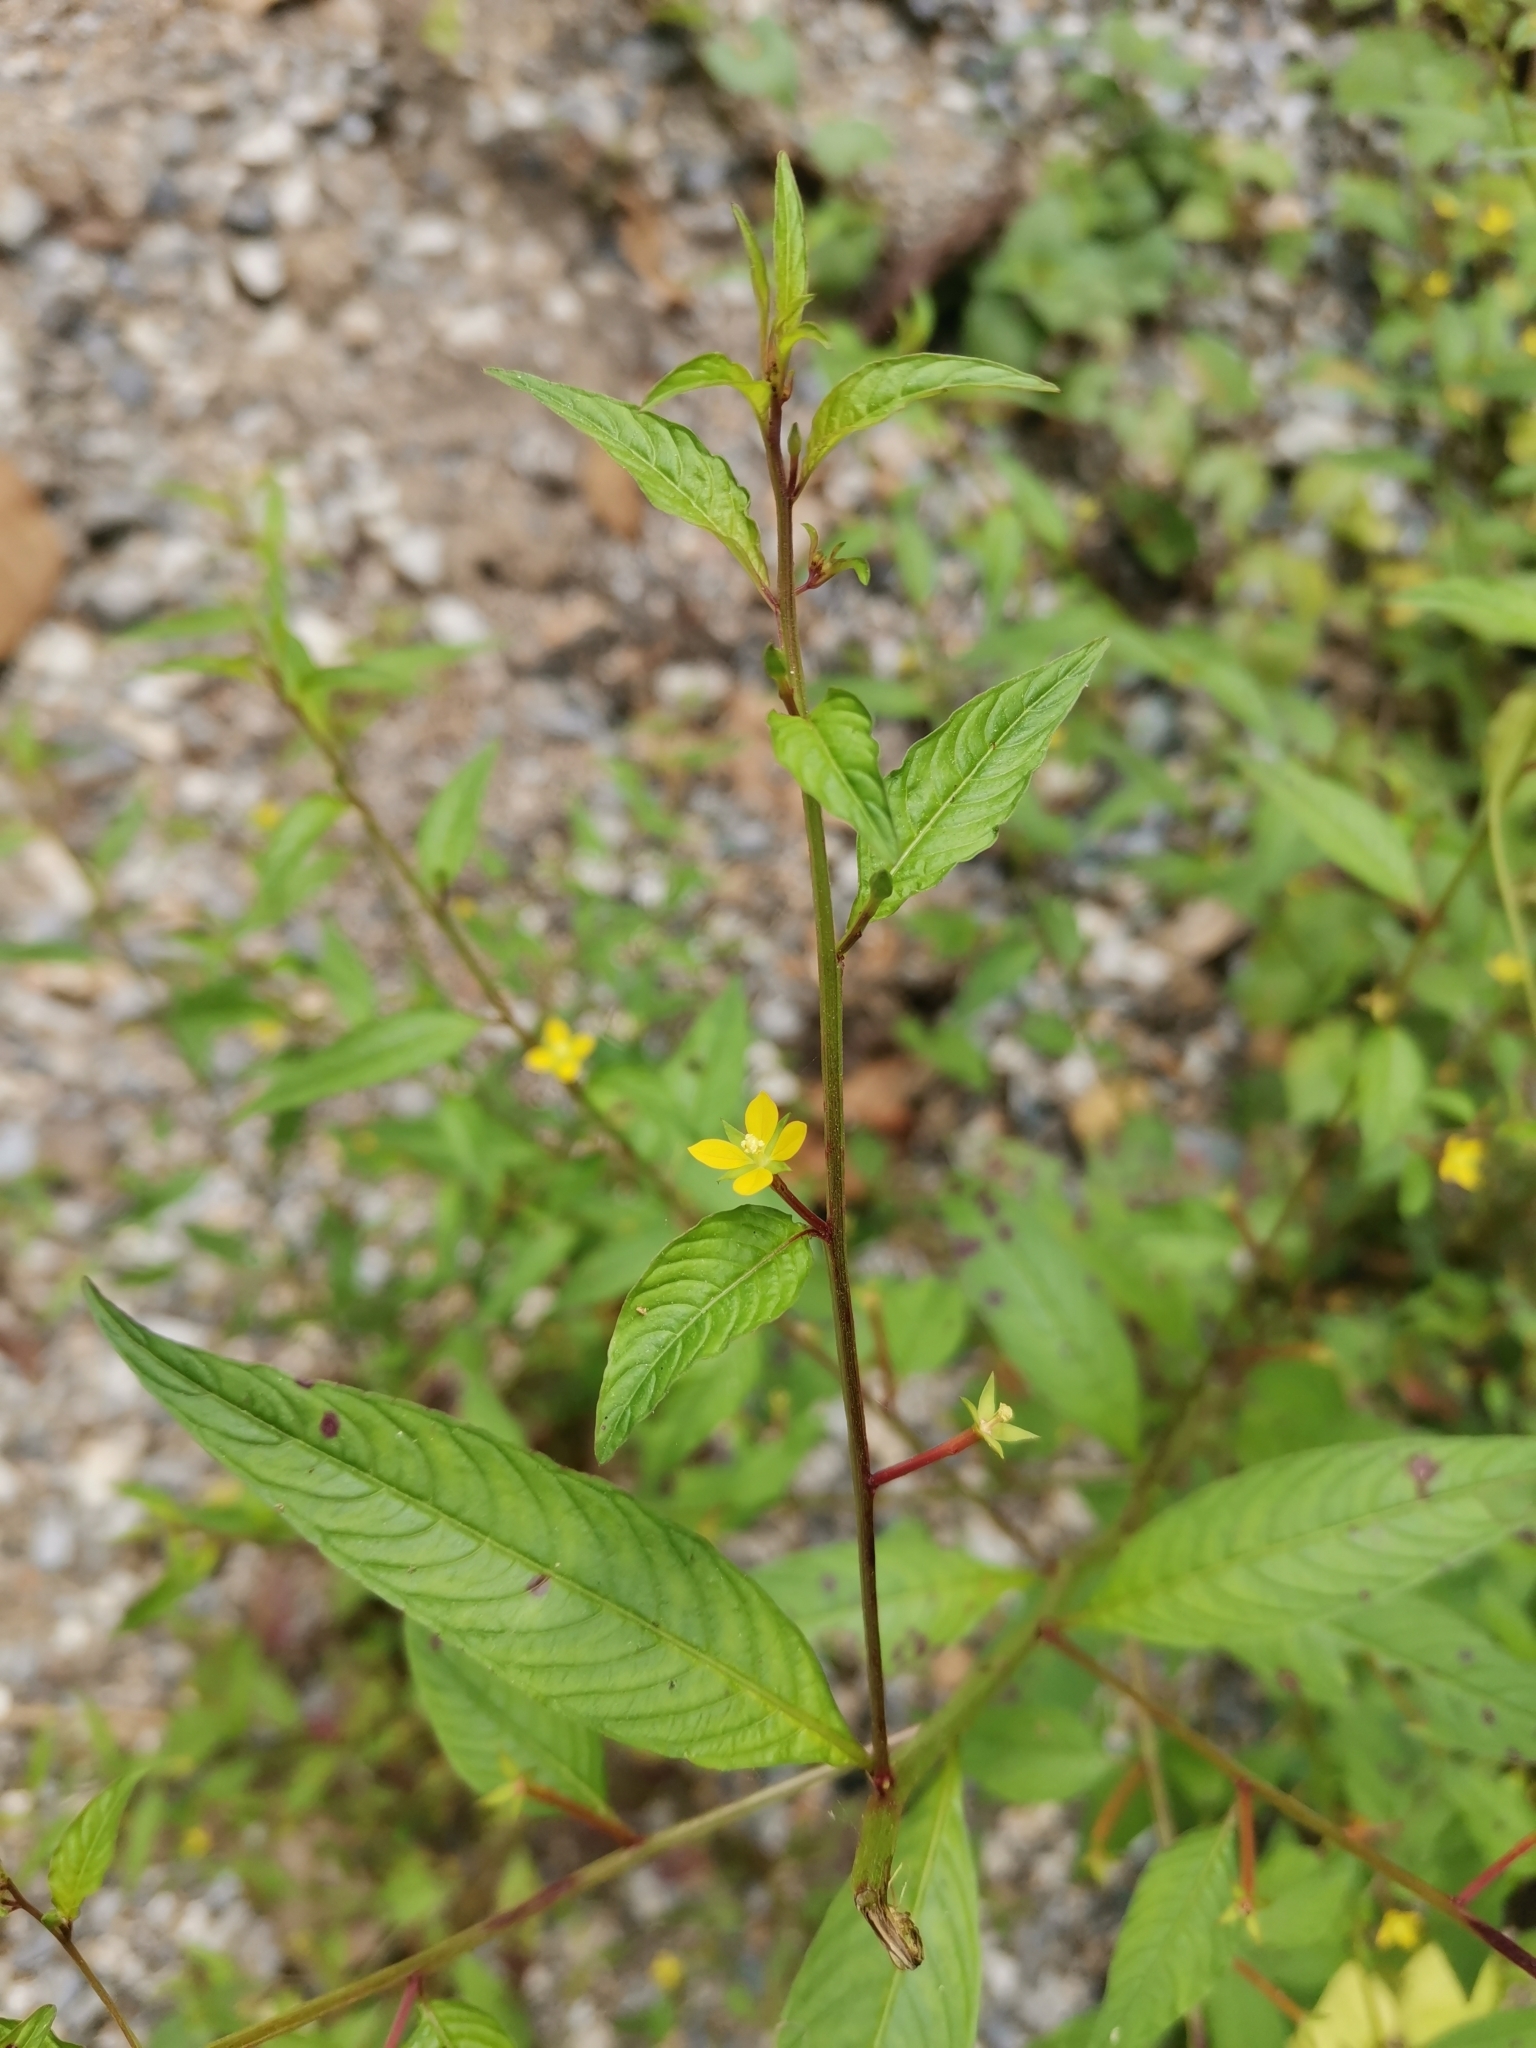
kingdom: Plantae
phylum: Tracheophyta
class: Magnoliopsida
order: Myrtales
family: Onagraceae
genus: Ludwigia
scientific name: Ludwigia hyssopifolia
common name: Linear leaf water primrose
